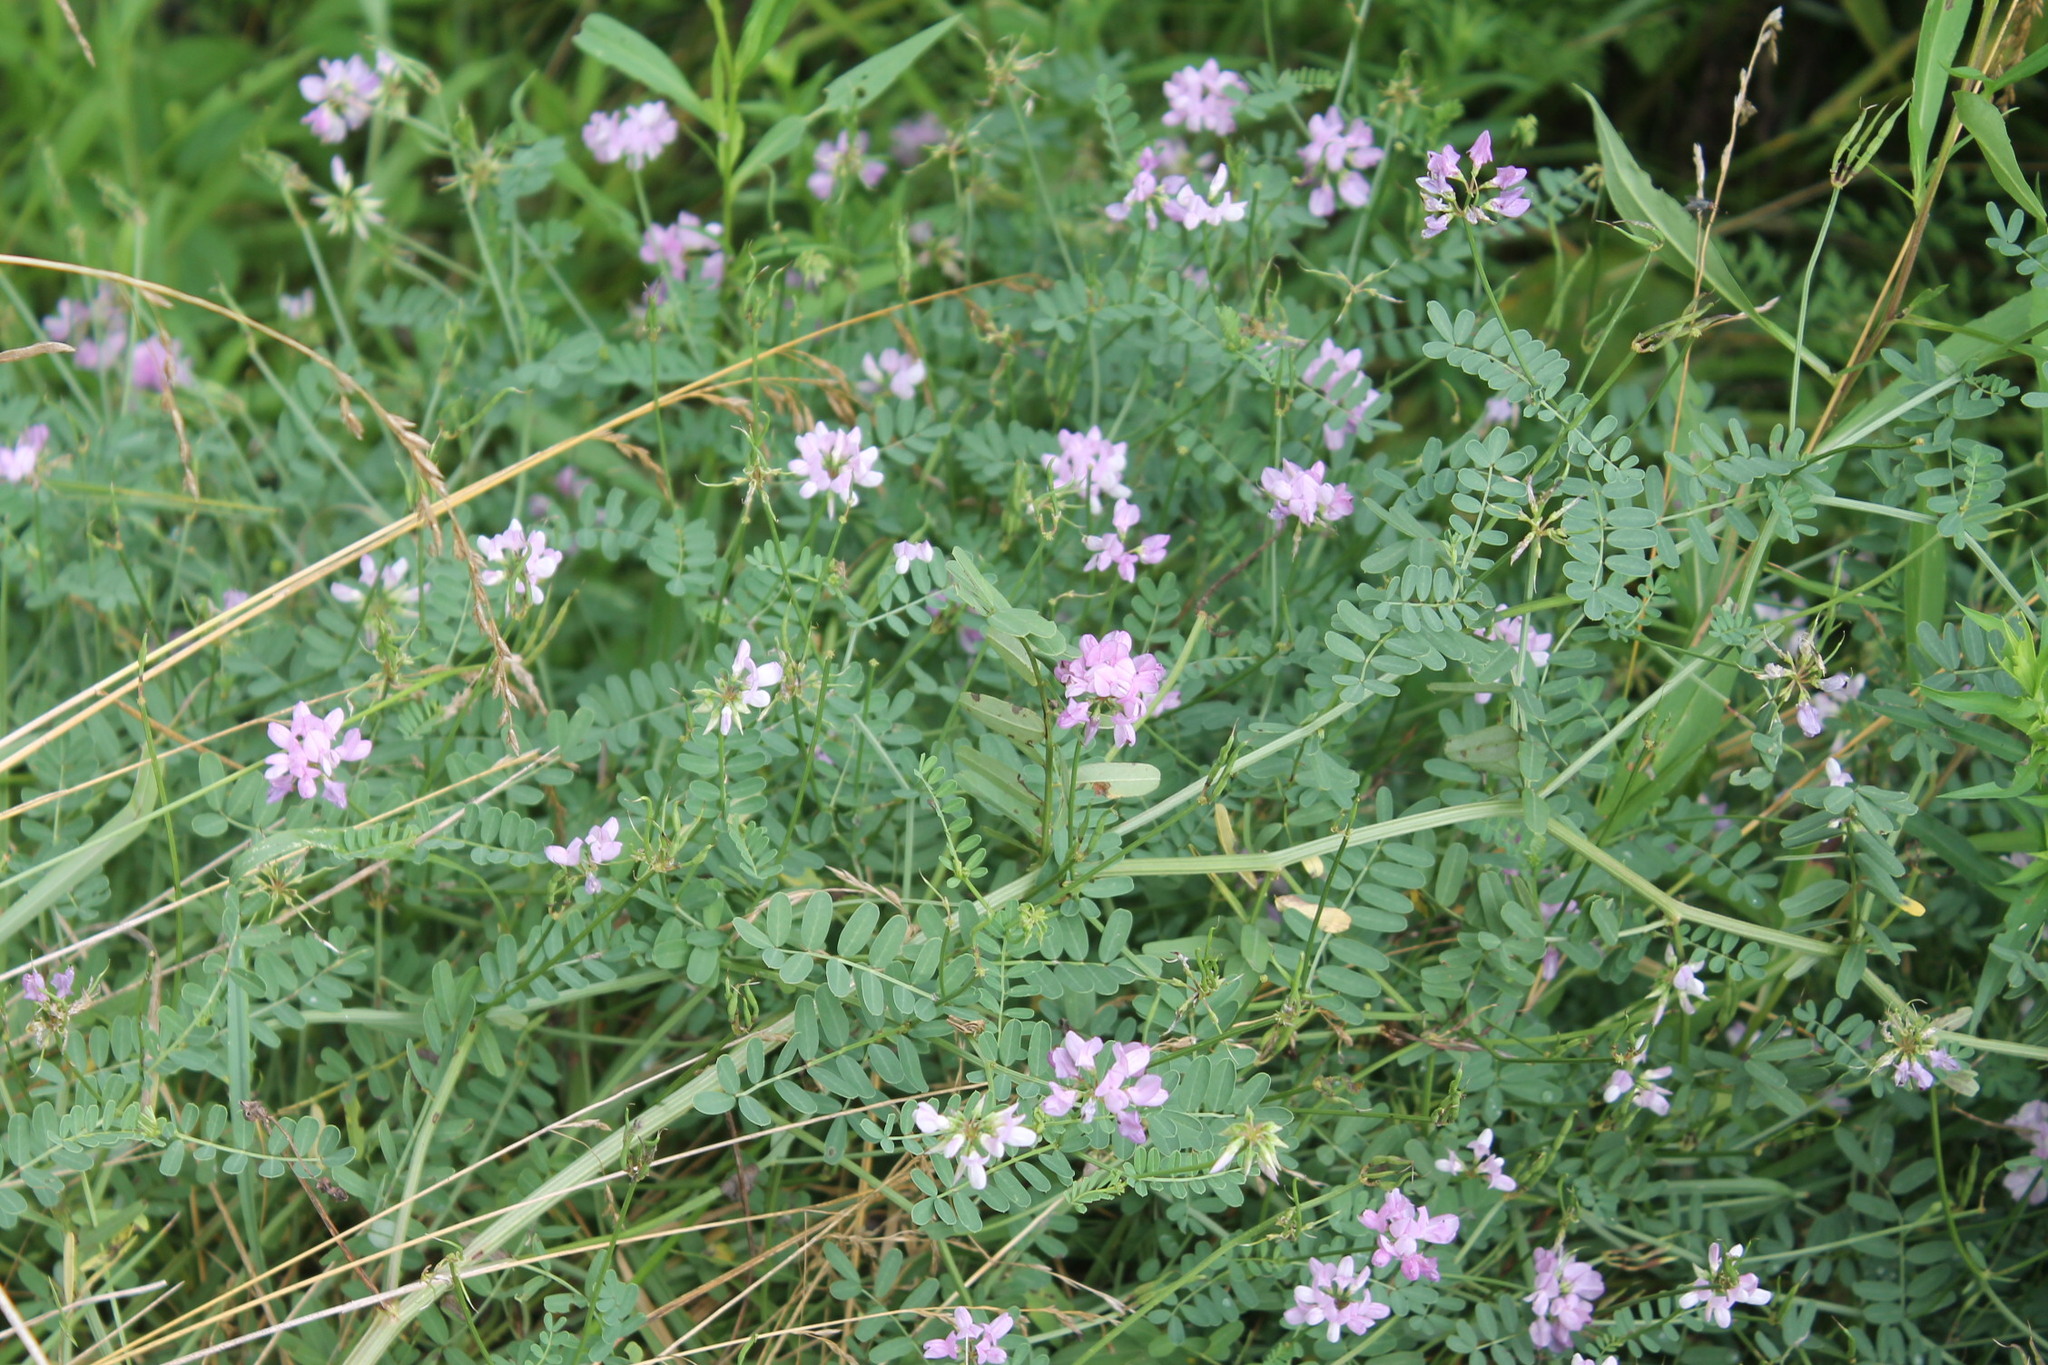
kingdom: Plantae
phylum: Tracheophyta
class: Magnoliopsida
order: Fabales
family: Fabaceae
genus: Coronilla
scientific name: Coronilla varia
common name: Crownvetch
